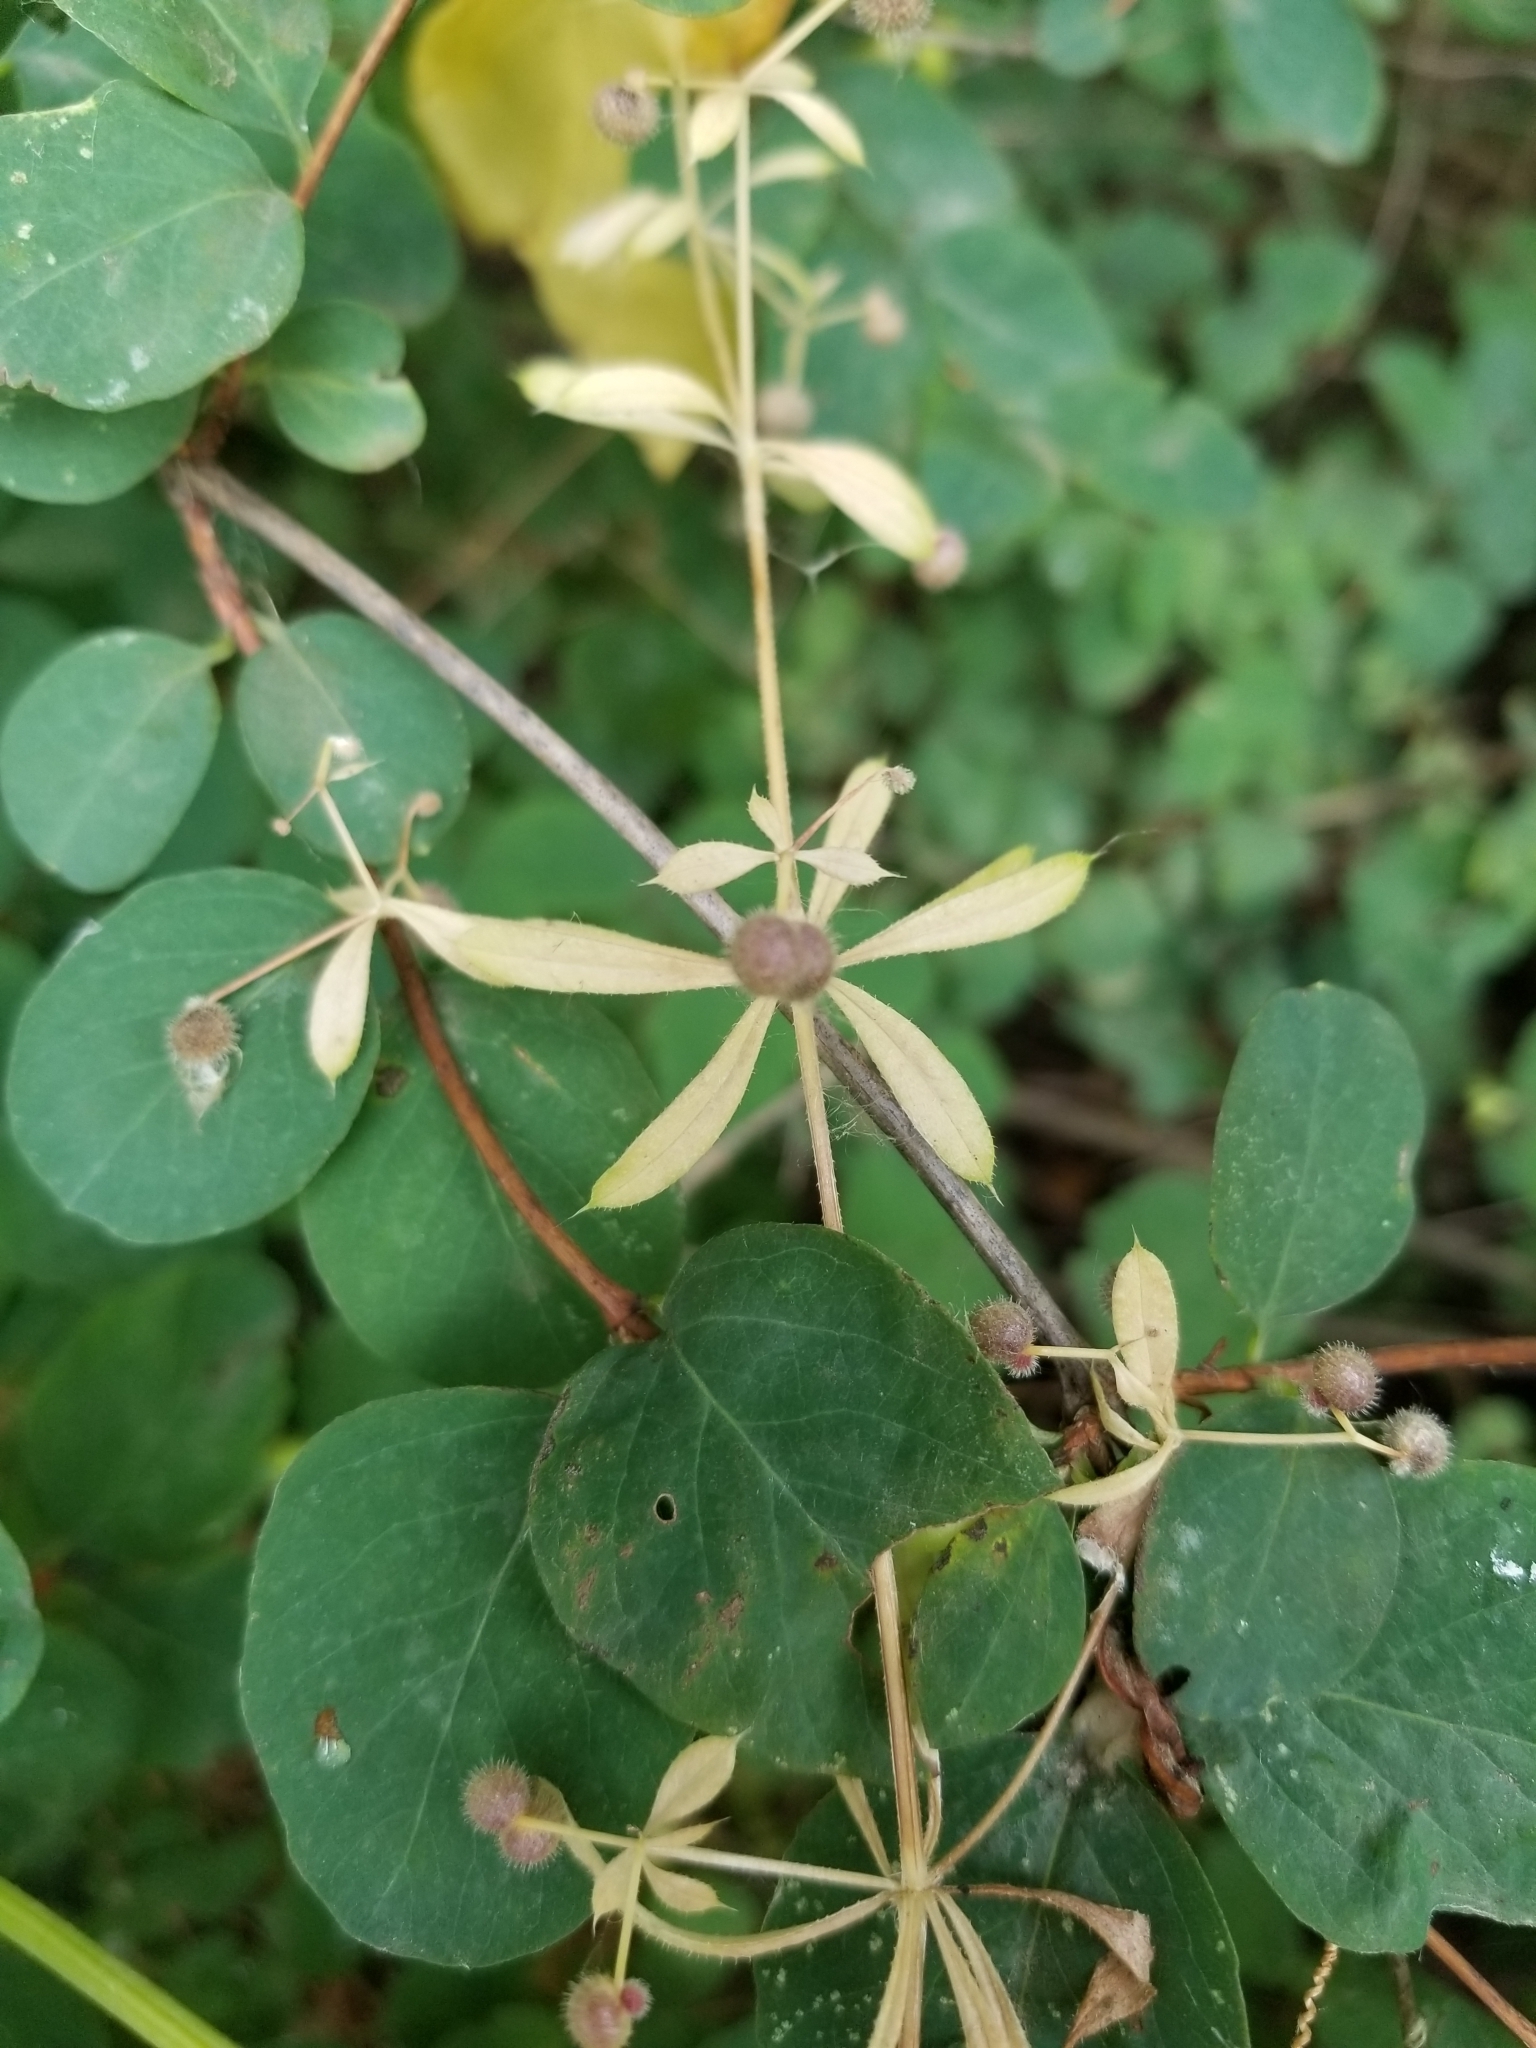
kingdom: Plantae
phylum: Tracheophyta
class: Magnoliopsida
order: Gentianales
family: Rubiaceae
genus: Galium
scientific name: Galium aparine
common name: Cleavers
